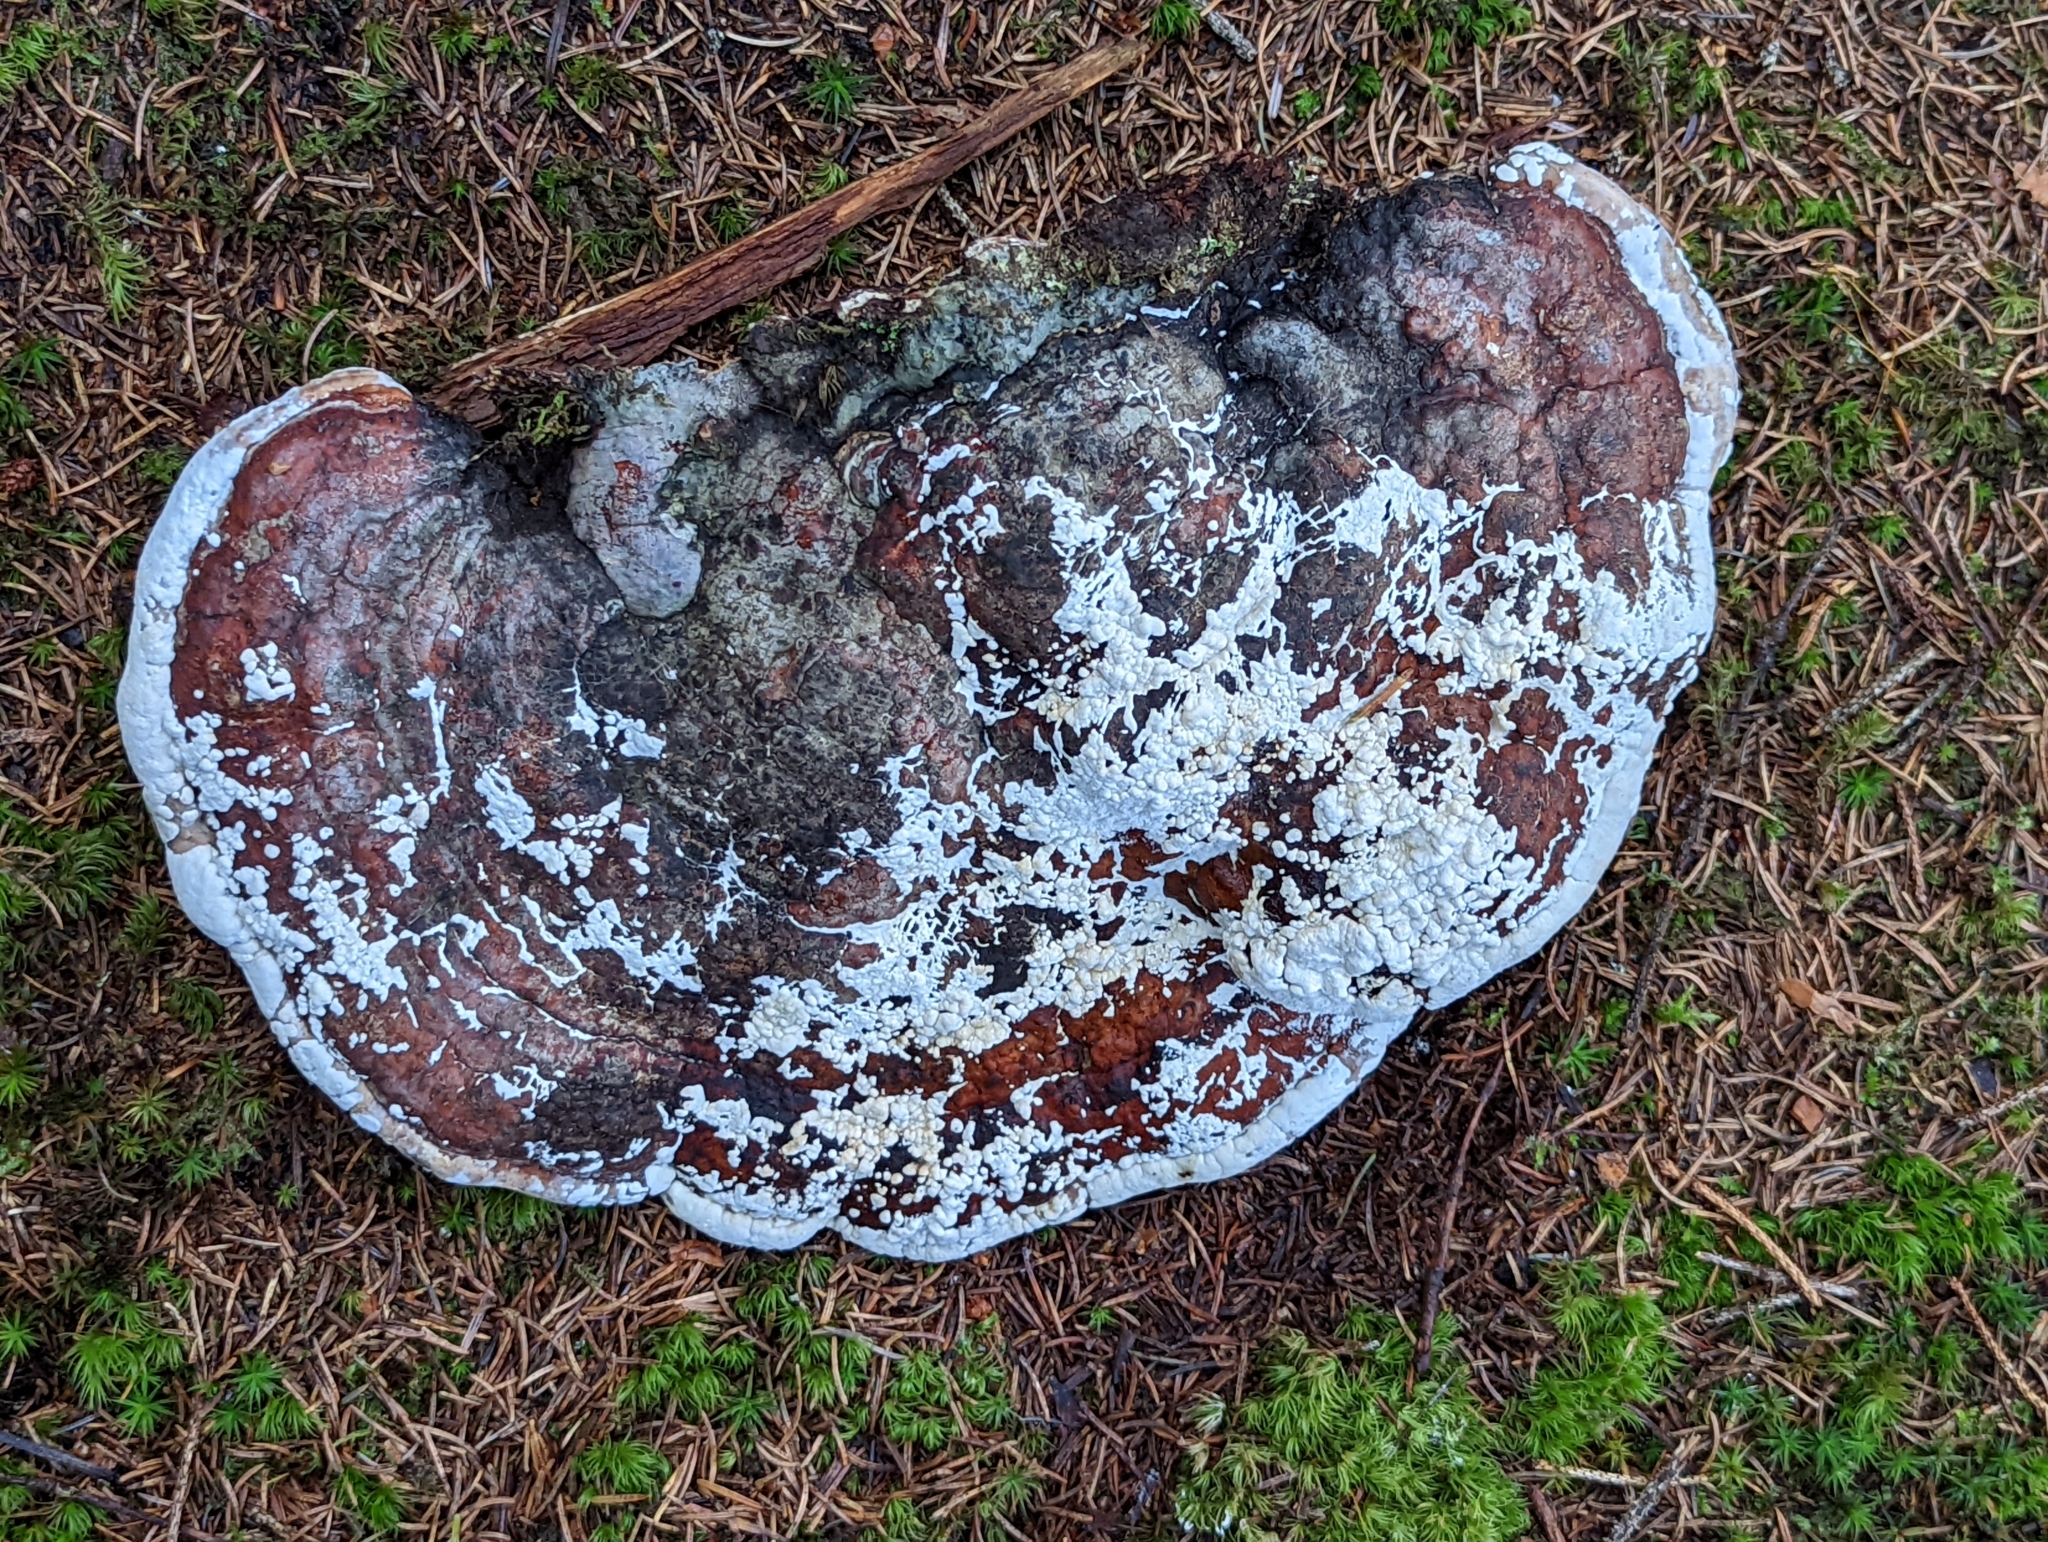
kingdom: Fungi
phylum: Basidiomycota
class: Agaricomycetes
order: Polyporales
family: Fomitopsidaceae
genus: Fomitopsis
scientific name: Fomitopsis pinicola
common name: Red-belted bracket
